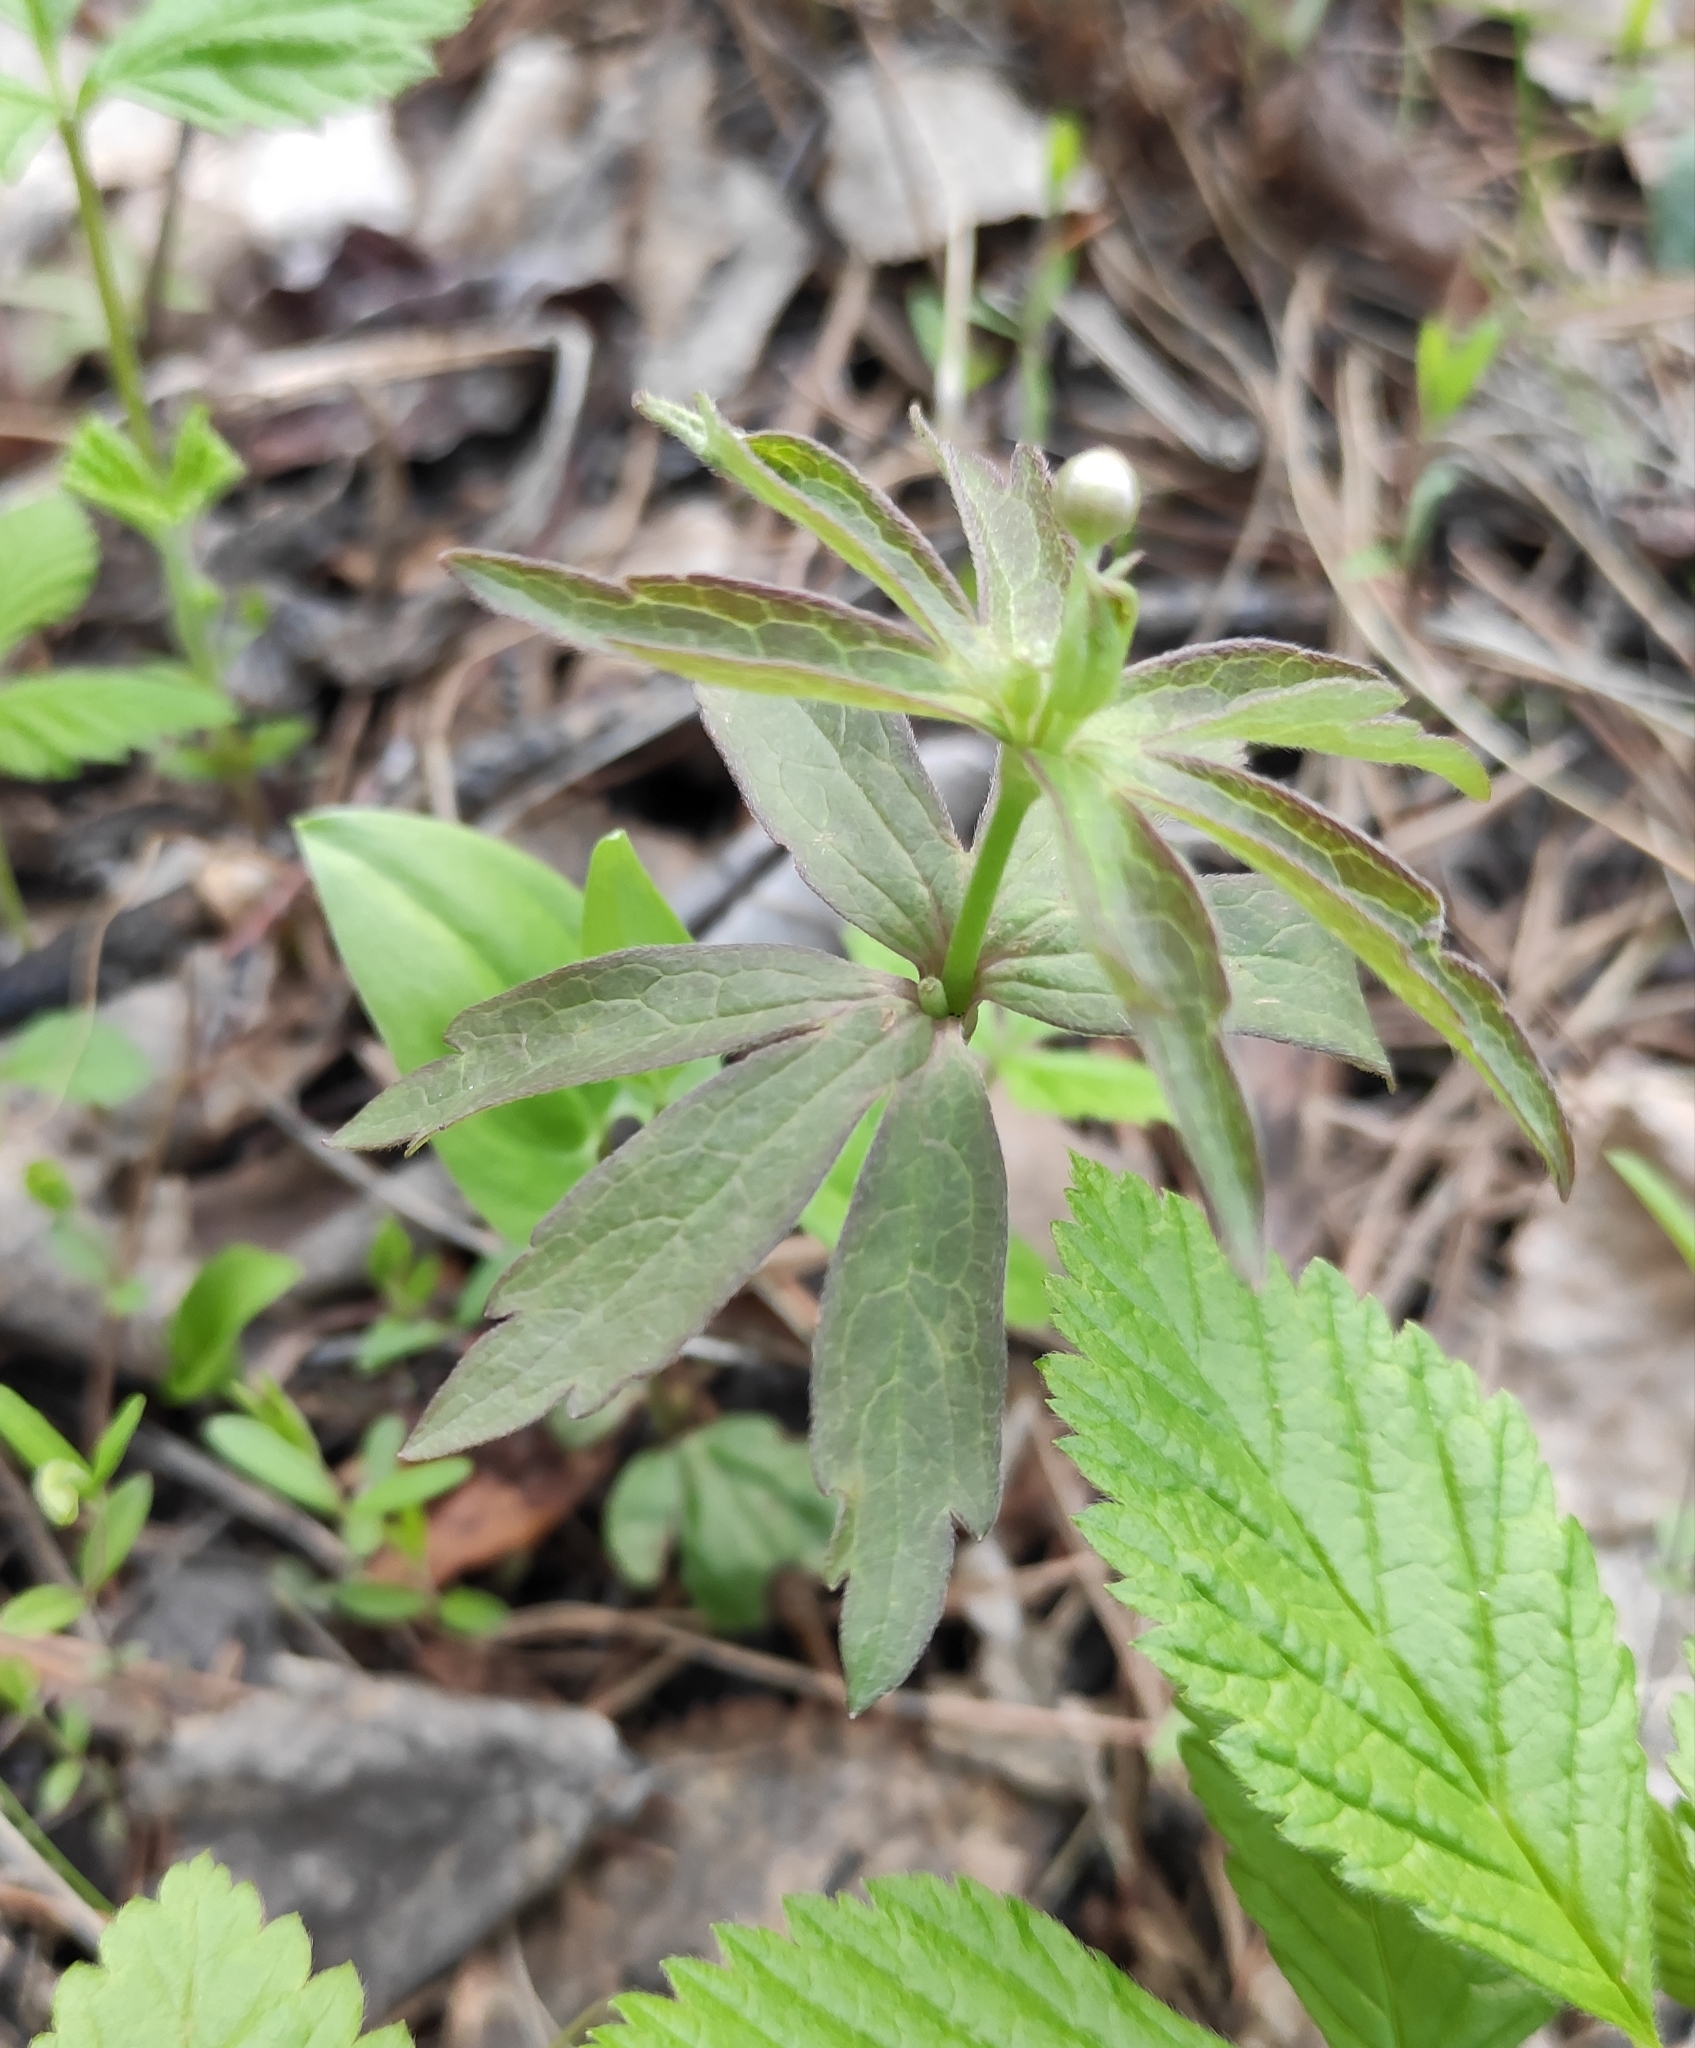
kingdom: Plantae
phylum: Tracheophyta
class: Magnoliopsida
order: Ranunculales
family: Ranunculaceae
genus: Anemonastrum
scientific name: Anemonastrum dichotomum
